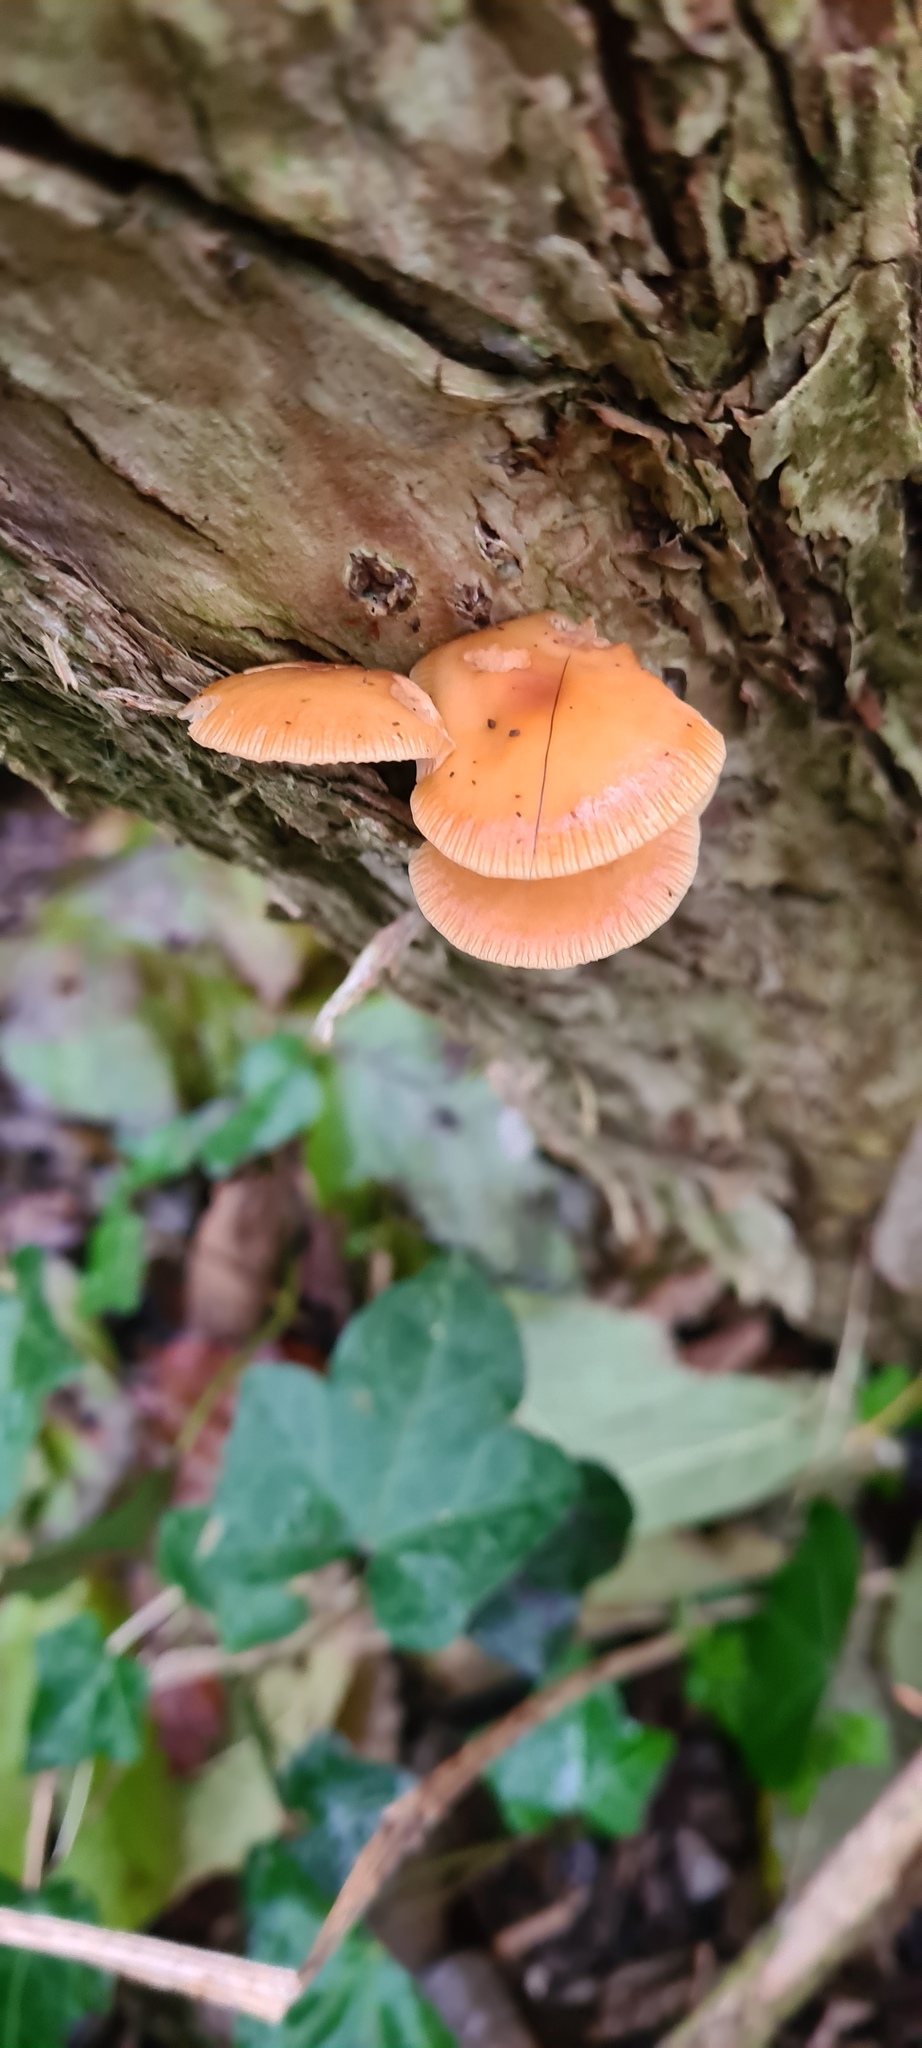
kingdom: Fungi
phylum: Basidiomycota
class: Agaricomycetes
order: Agaricales
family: Physalacriaceae
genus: Flammulina
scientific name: Flammulina
